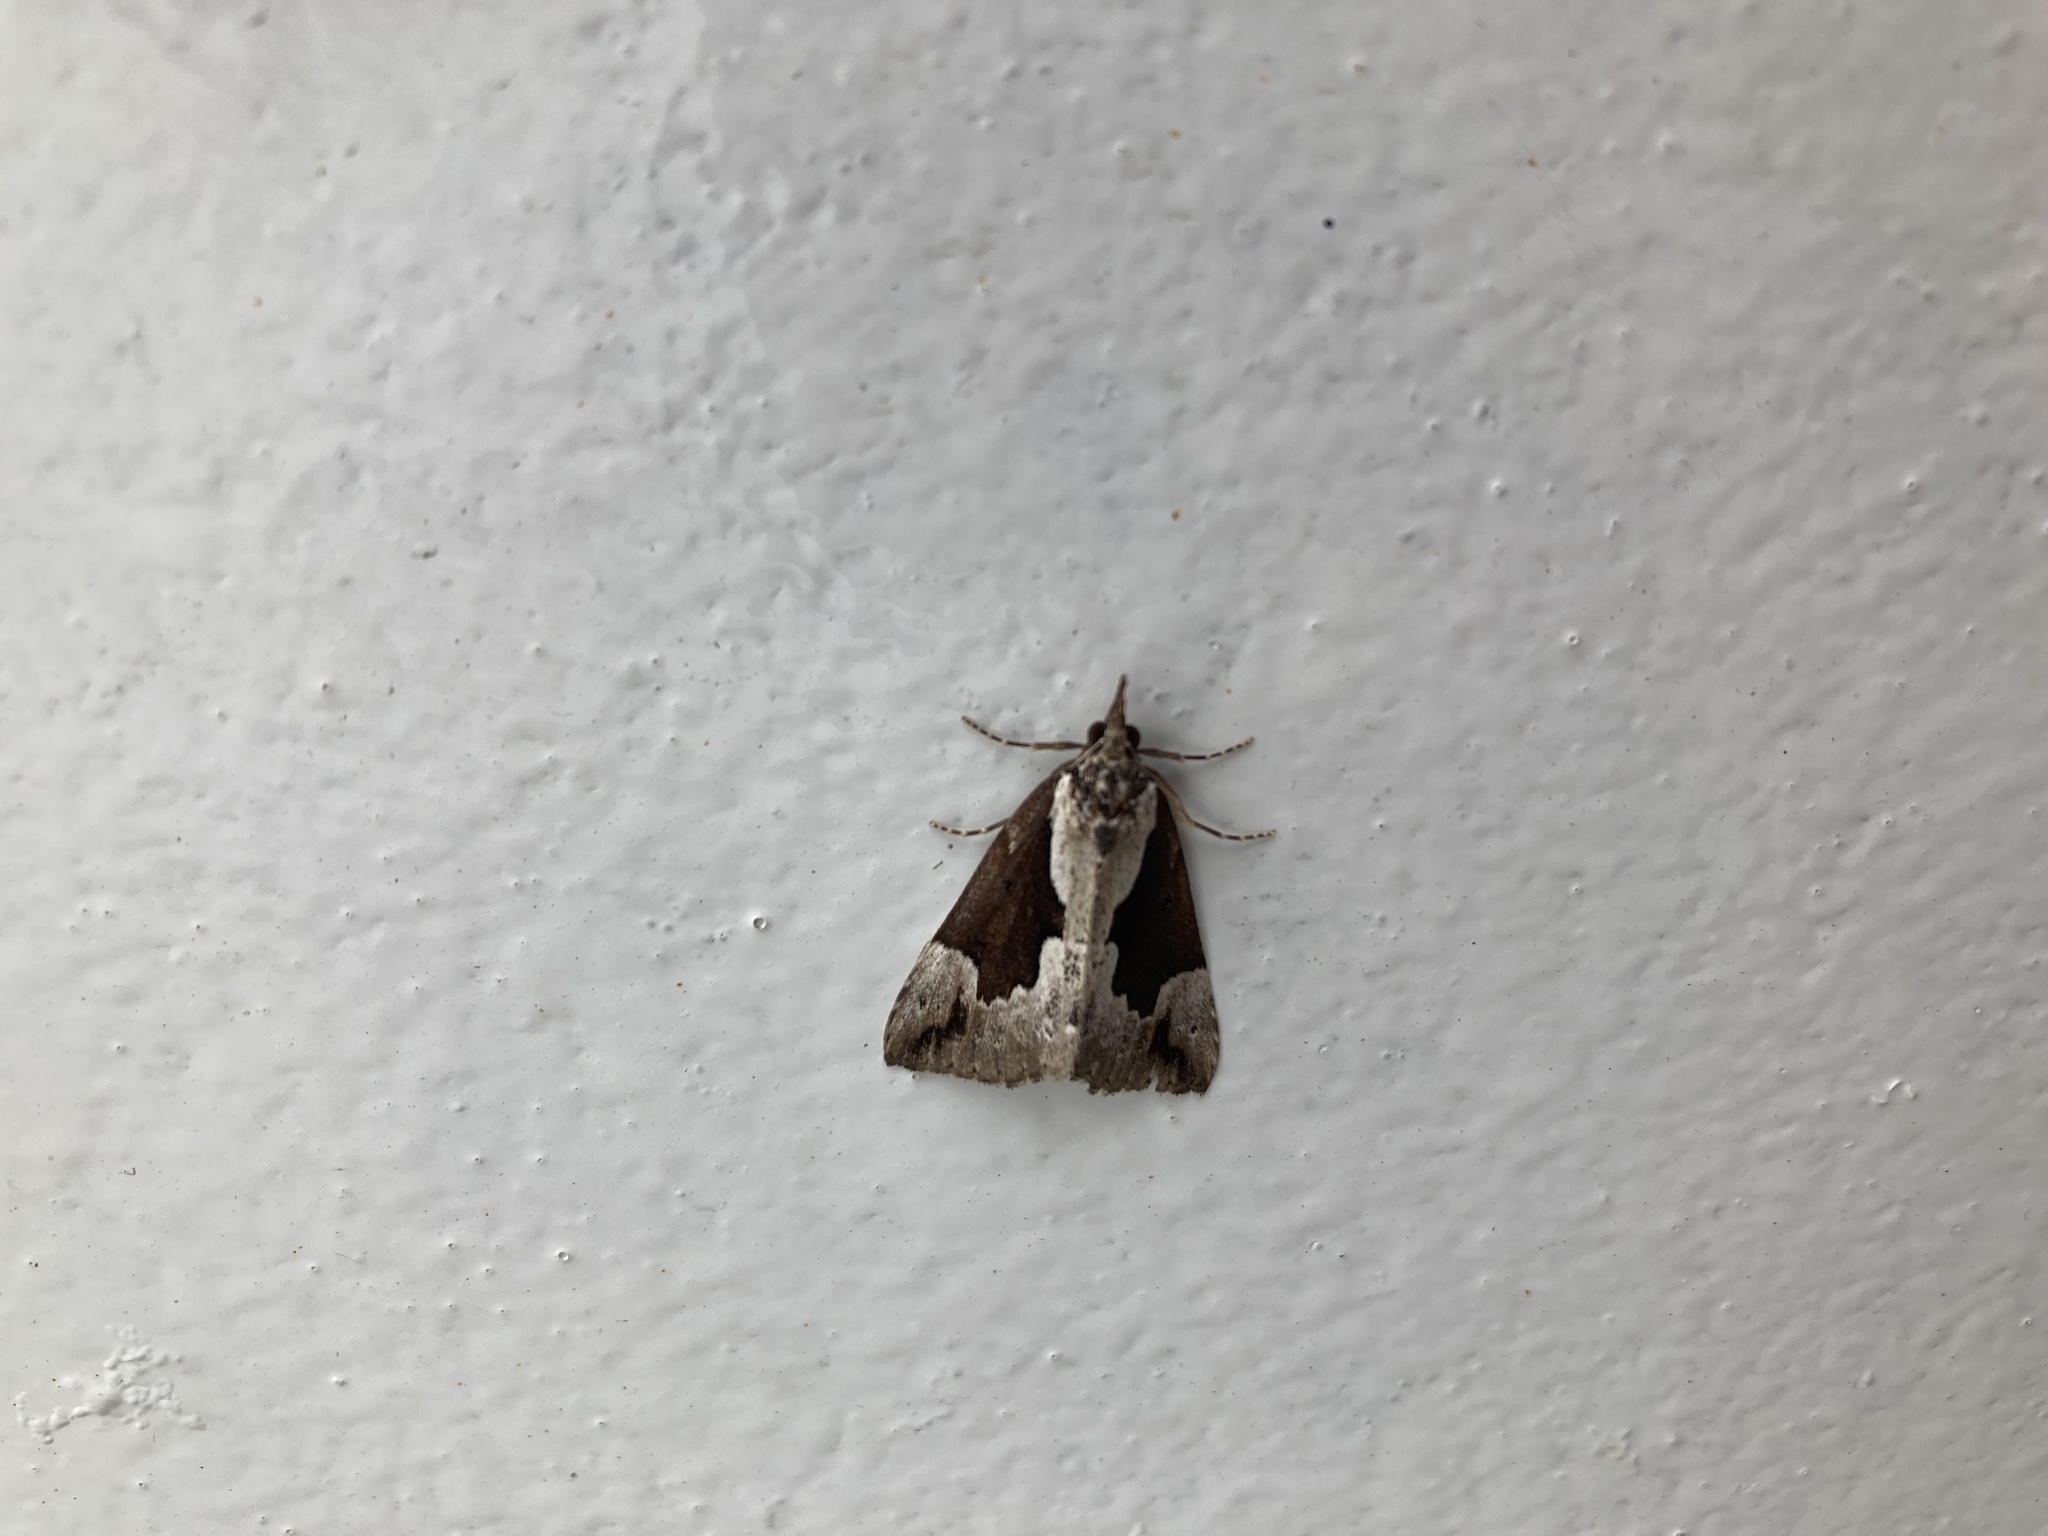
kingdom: Animalia
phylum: Arthropoda
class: Insecta
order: Lepidoptera
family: Erebidae
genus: Hypena
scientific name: Hypena baltimoralis
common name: Baltimore snout
